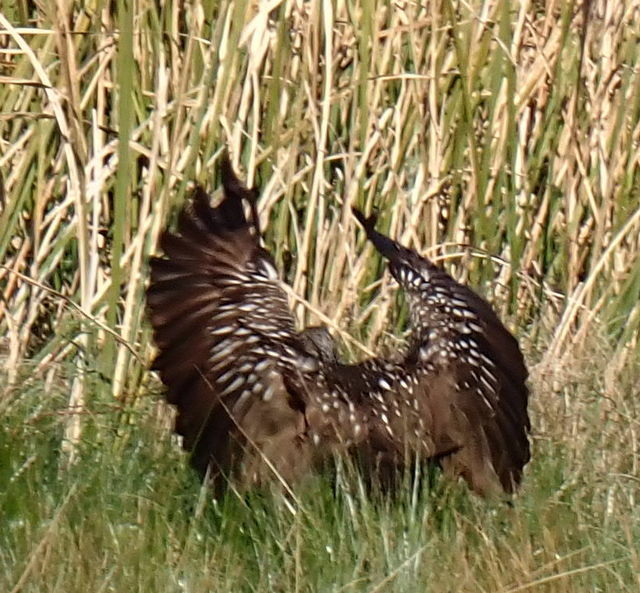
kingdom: Animalia
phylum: Chordata
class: Aves
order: Gruiformes
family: Aramidae
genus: Aramus
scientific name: Aramus guarauna
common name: Limpkin
